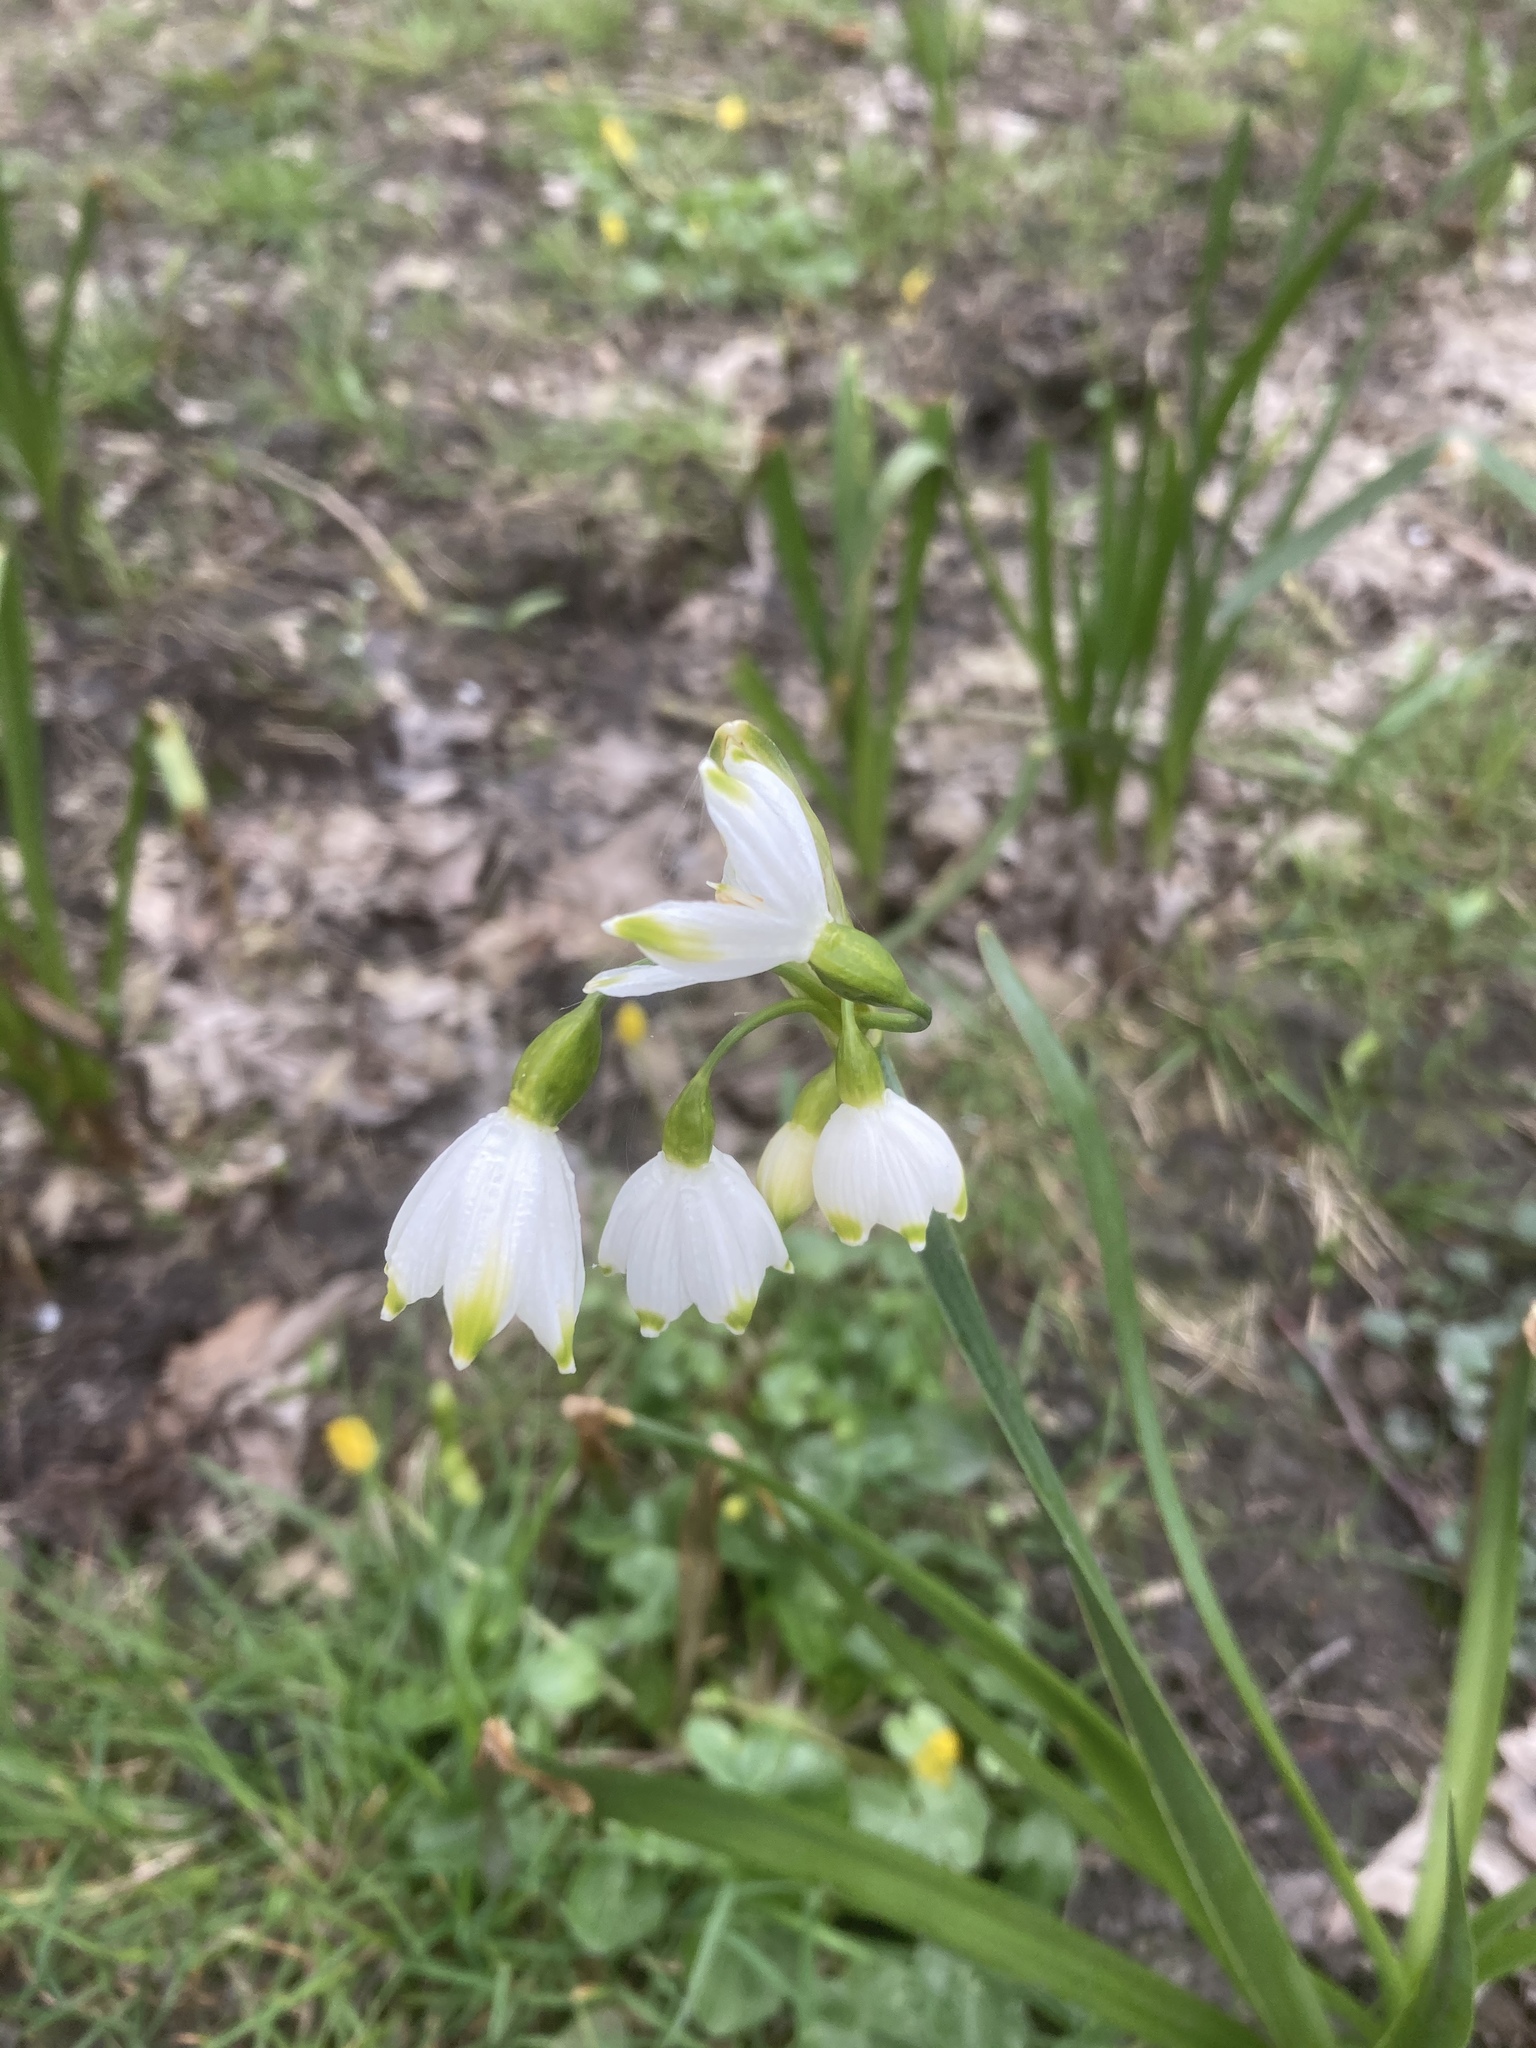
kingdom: Plantae
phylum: Tracheophyta
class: Liliopsida
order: Asparagales
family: Amaryllidaceae
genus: Leucojum
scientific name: Leucojum aestivum
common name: Summer snowflake
